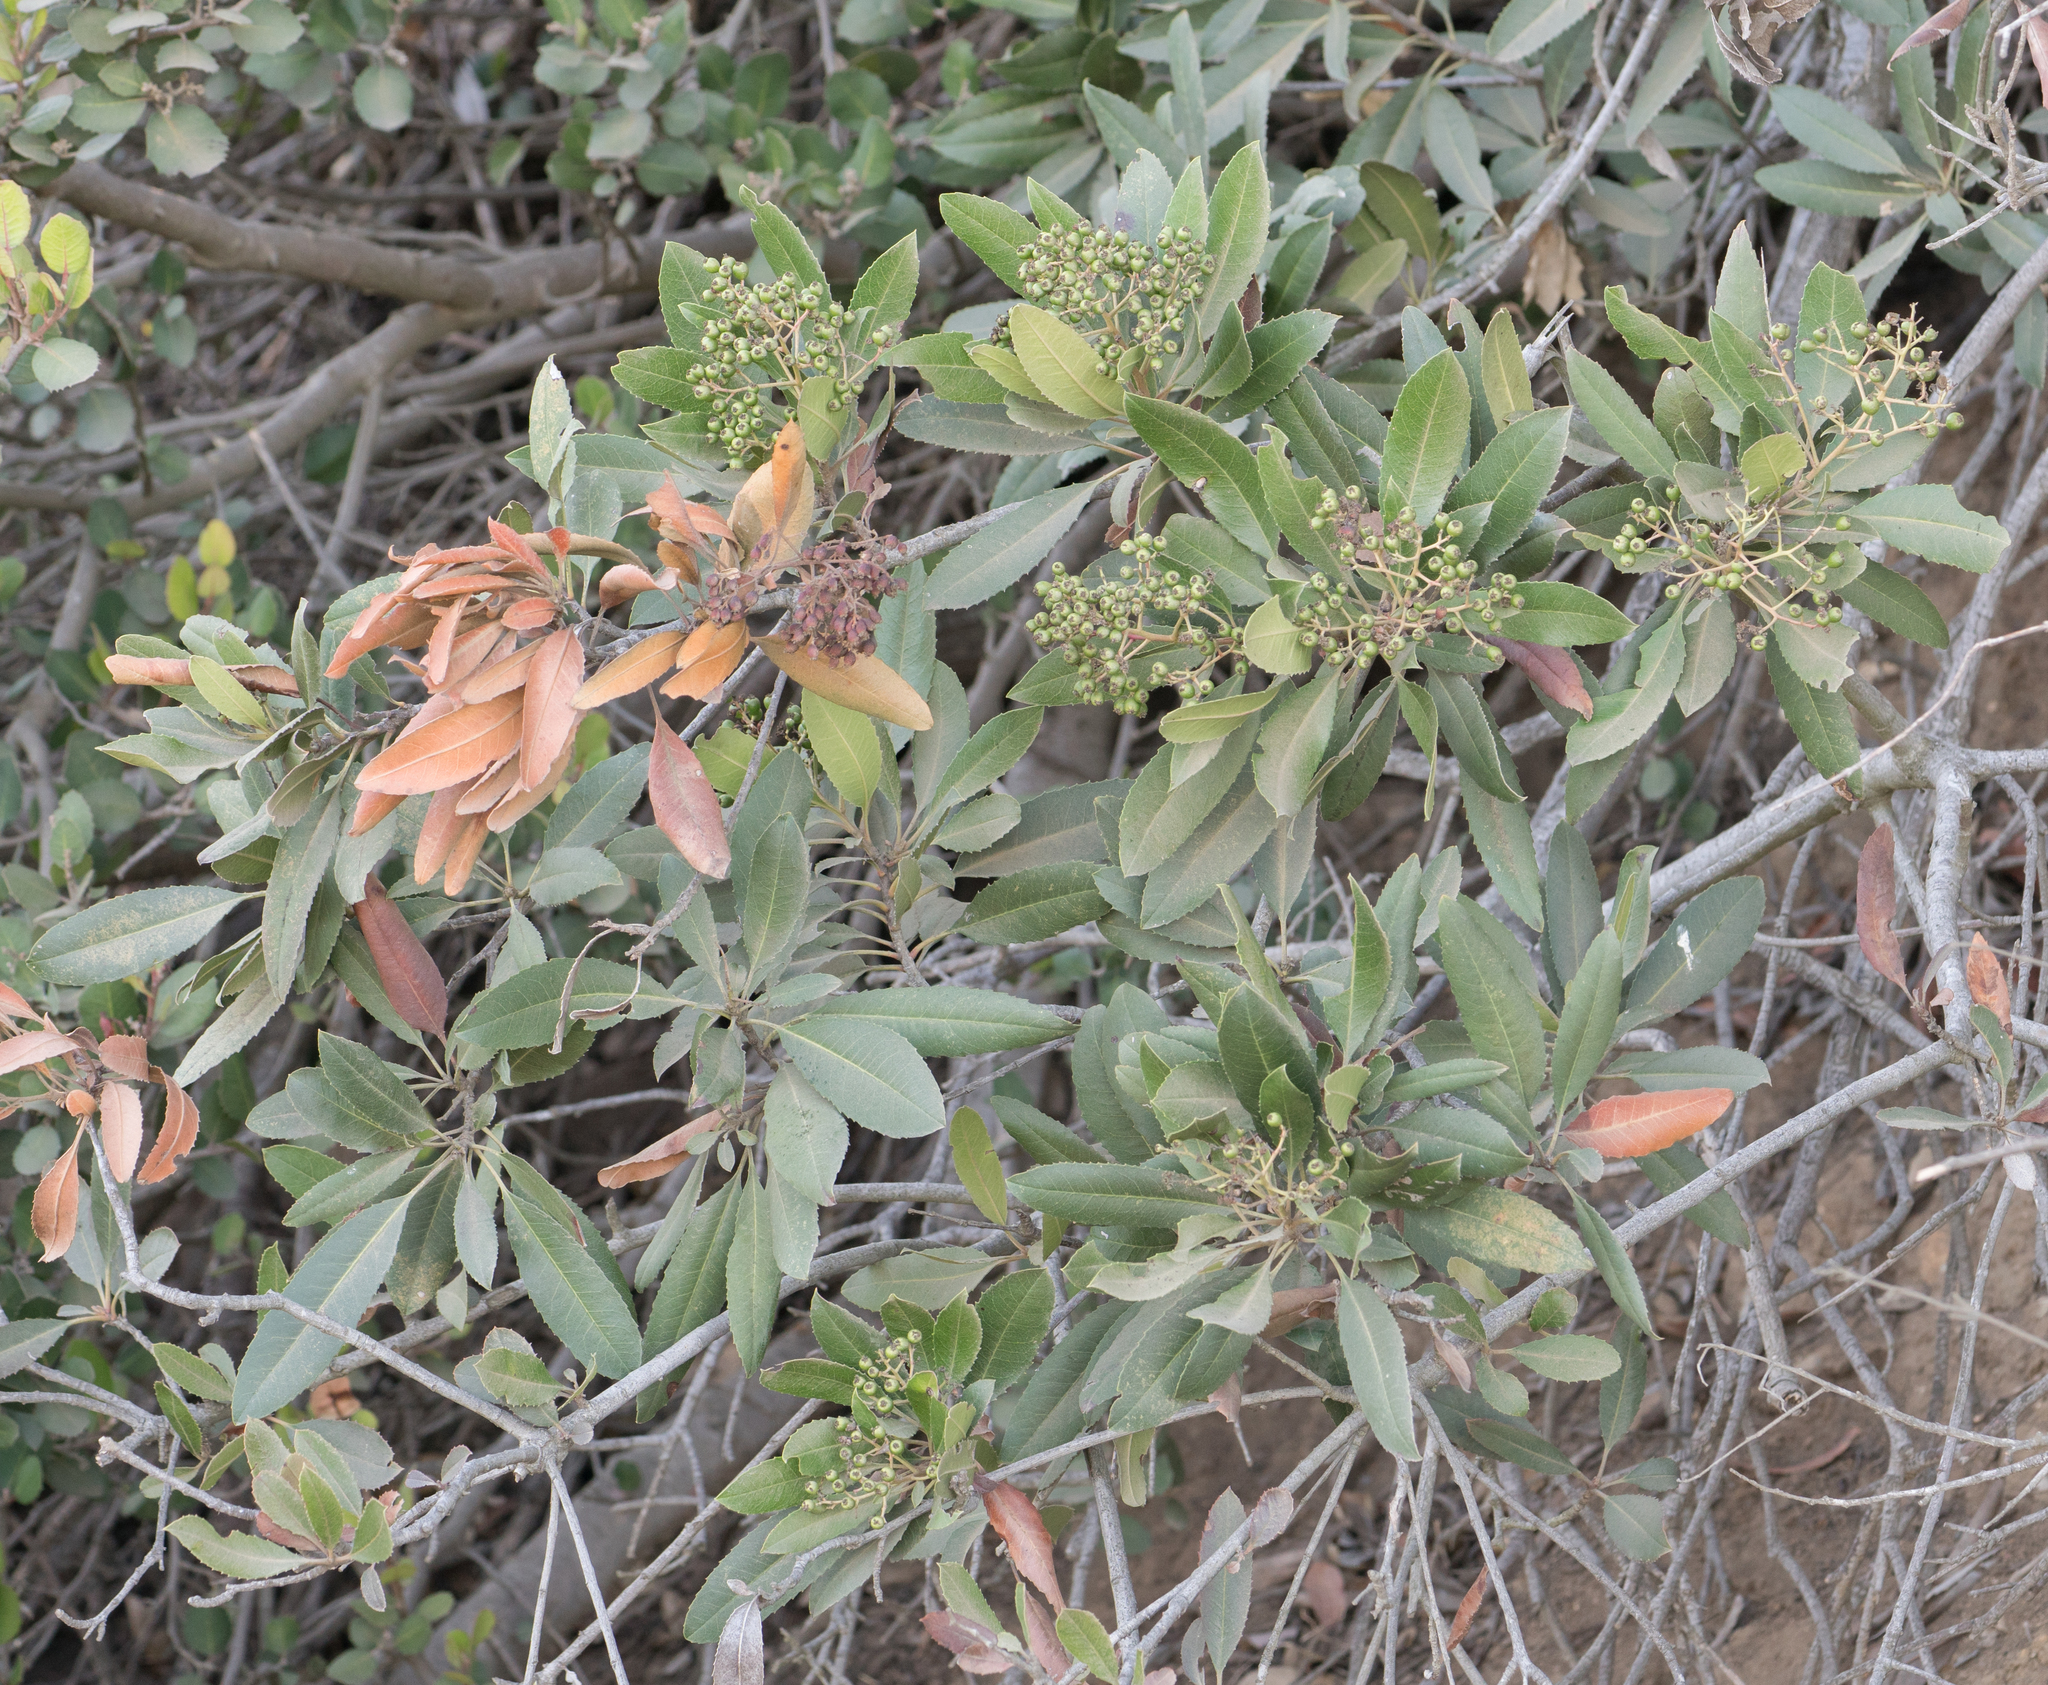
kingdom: Plantae
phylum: Tracheophyta
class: Magnoliopsida
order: Rosales
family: Rosaceae
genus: Heteromeles
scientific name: Heteromeles arbutifolia
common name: California-holly
